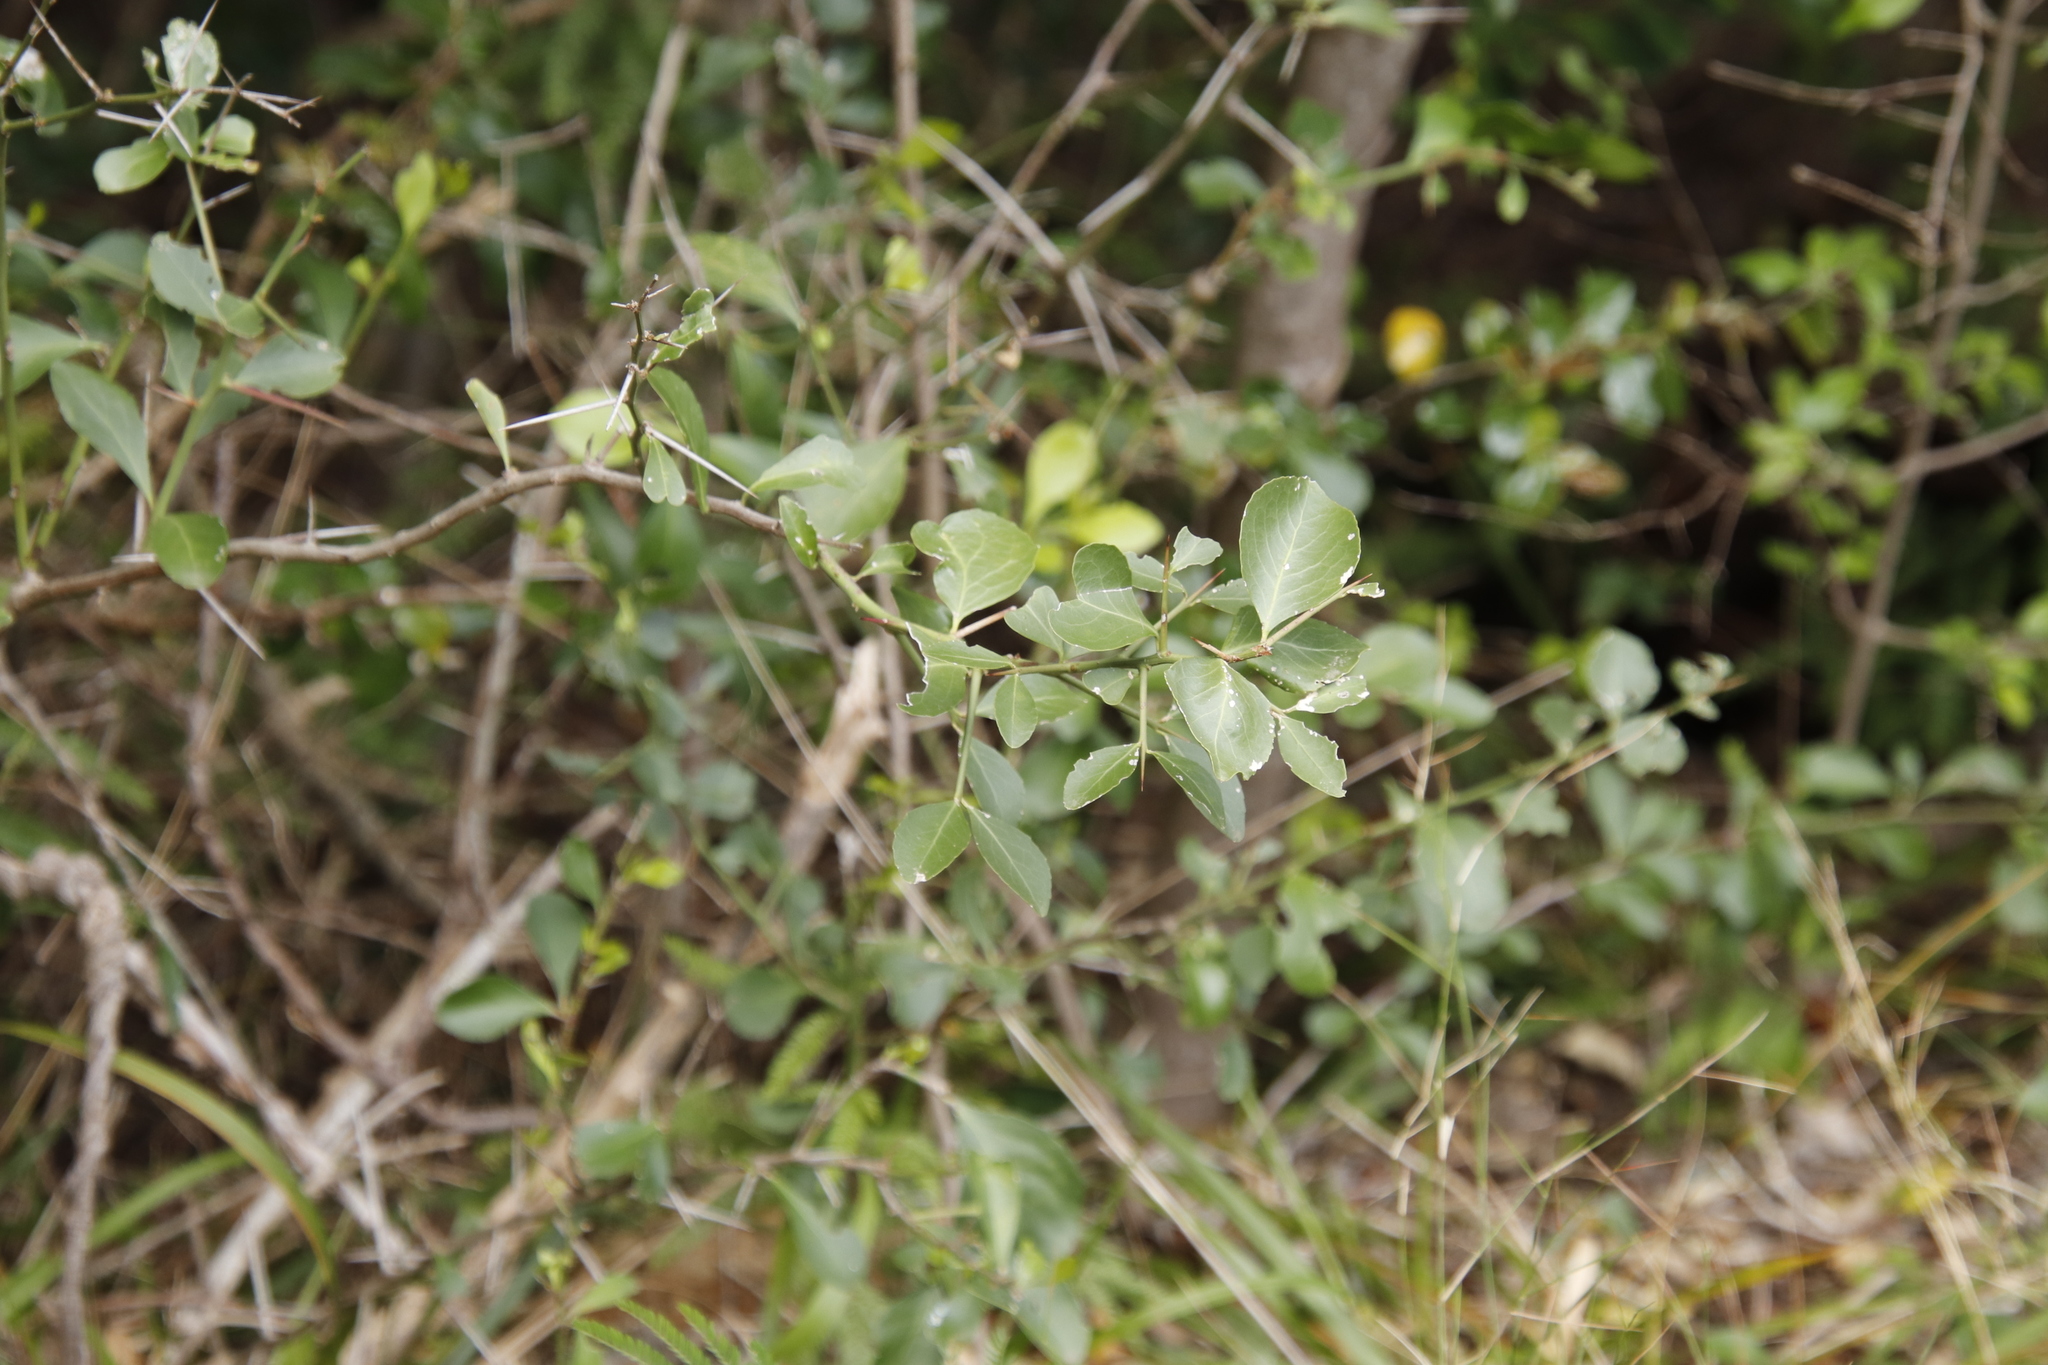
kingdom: Plantae
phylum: Tracheophyta
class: Magnoliopsida
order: Celastrales
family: Celastraceae
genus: Gymnosporia
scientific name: Gymnosporia buxifolia
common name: Common spike-thorn
